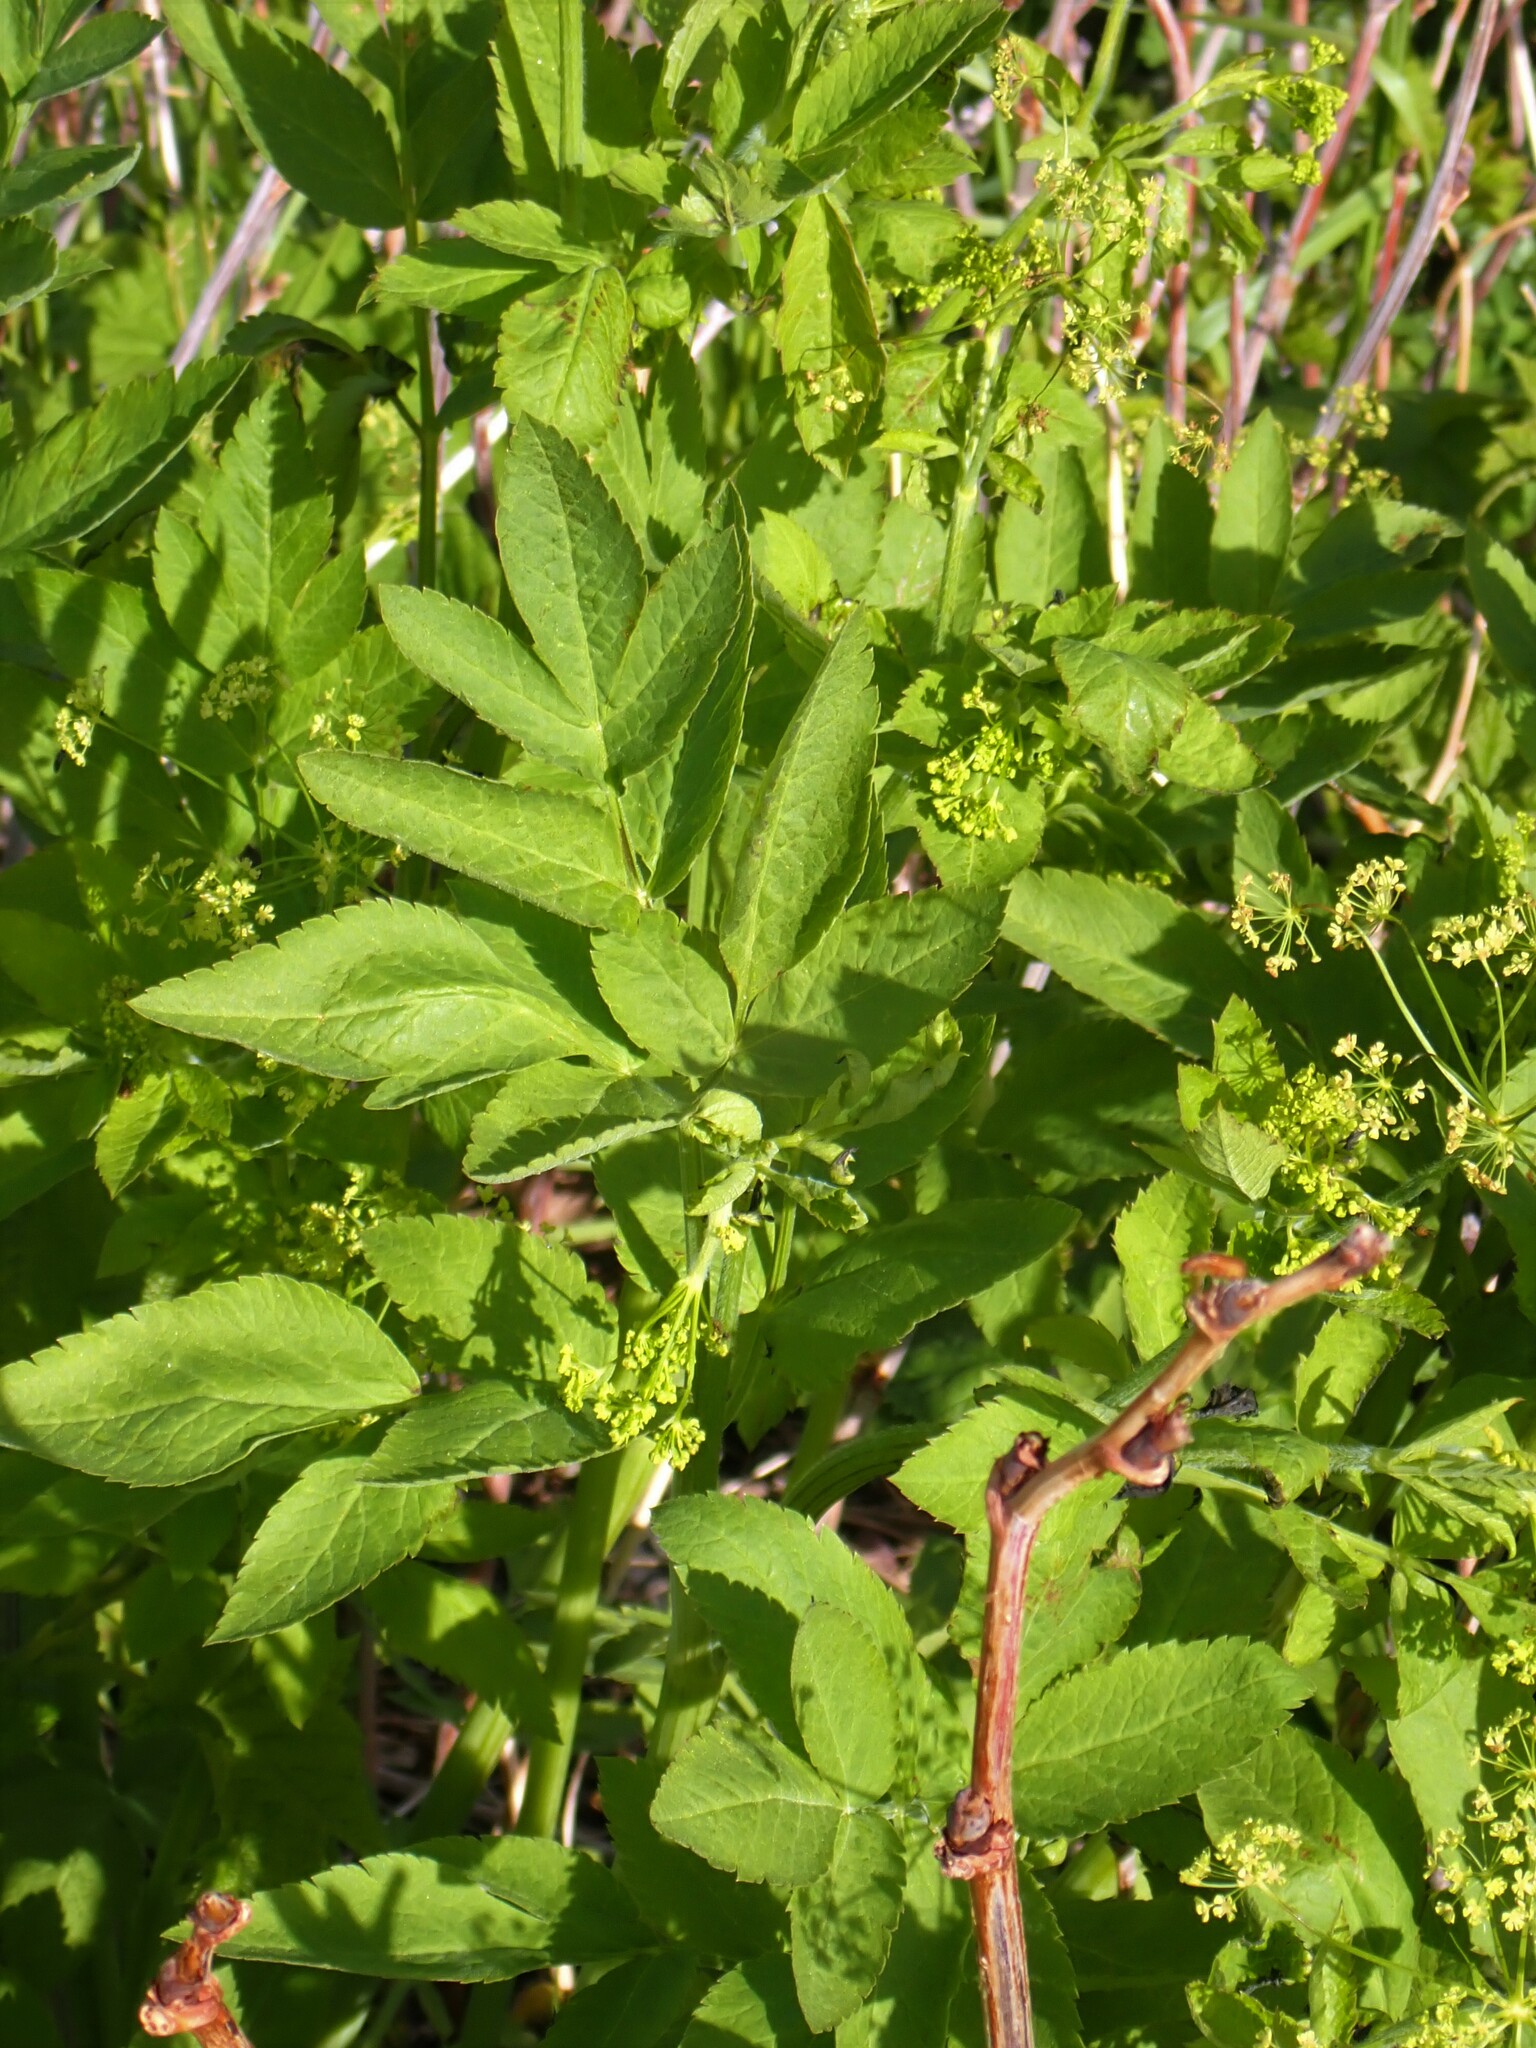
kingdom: Plantae
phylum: Tracheophyta
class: Magnoliopsida
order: Apiales
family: Apiaceae
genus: Osmorhiza
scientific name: Osmorhiza occidentalis
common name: Western sweet cicely
